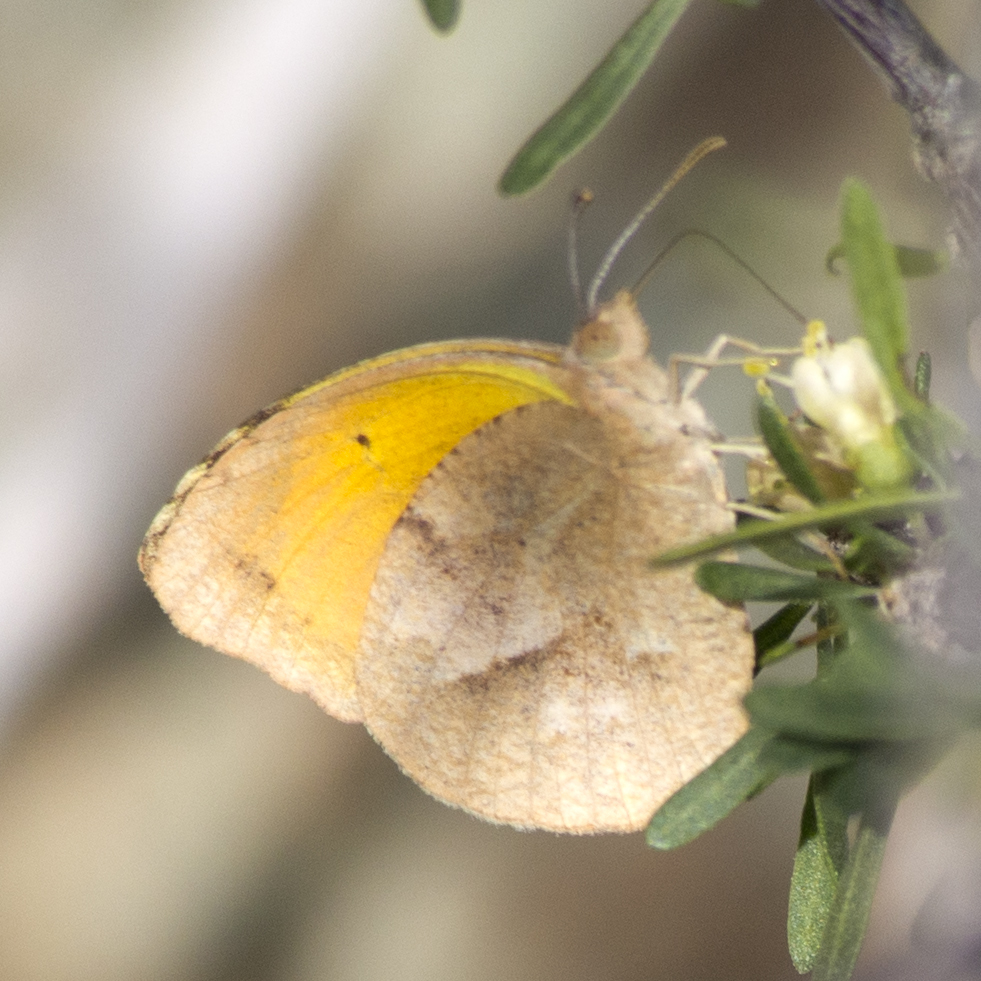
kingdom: Animalia
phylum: Arthropoda
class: Insecta
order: Lepidoptera
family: Pieridae
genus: Abaeis
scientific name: Abaeis nicippe
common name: Sleepy orange
